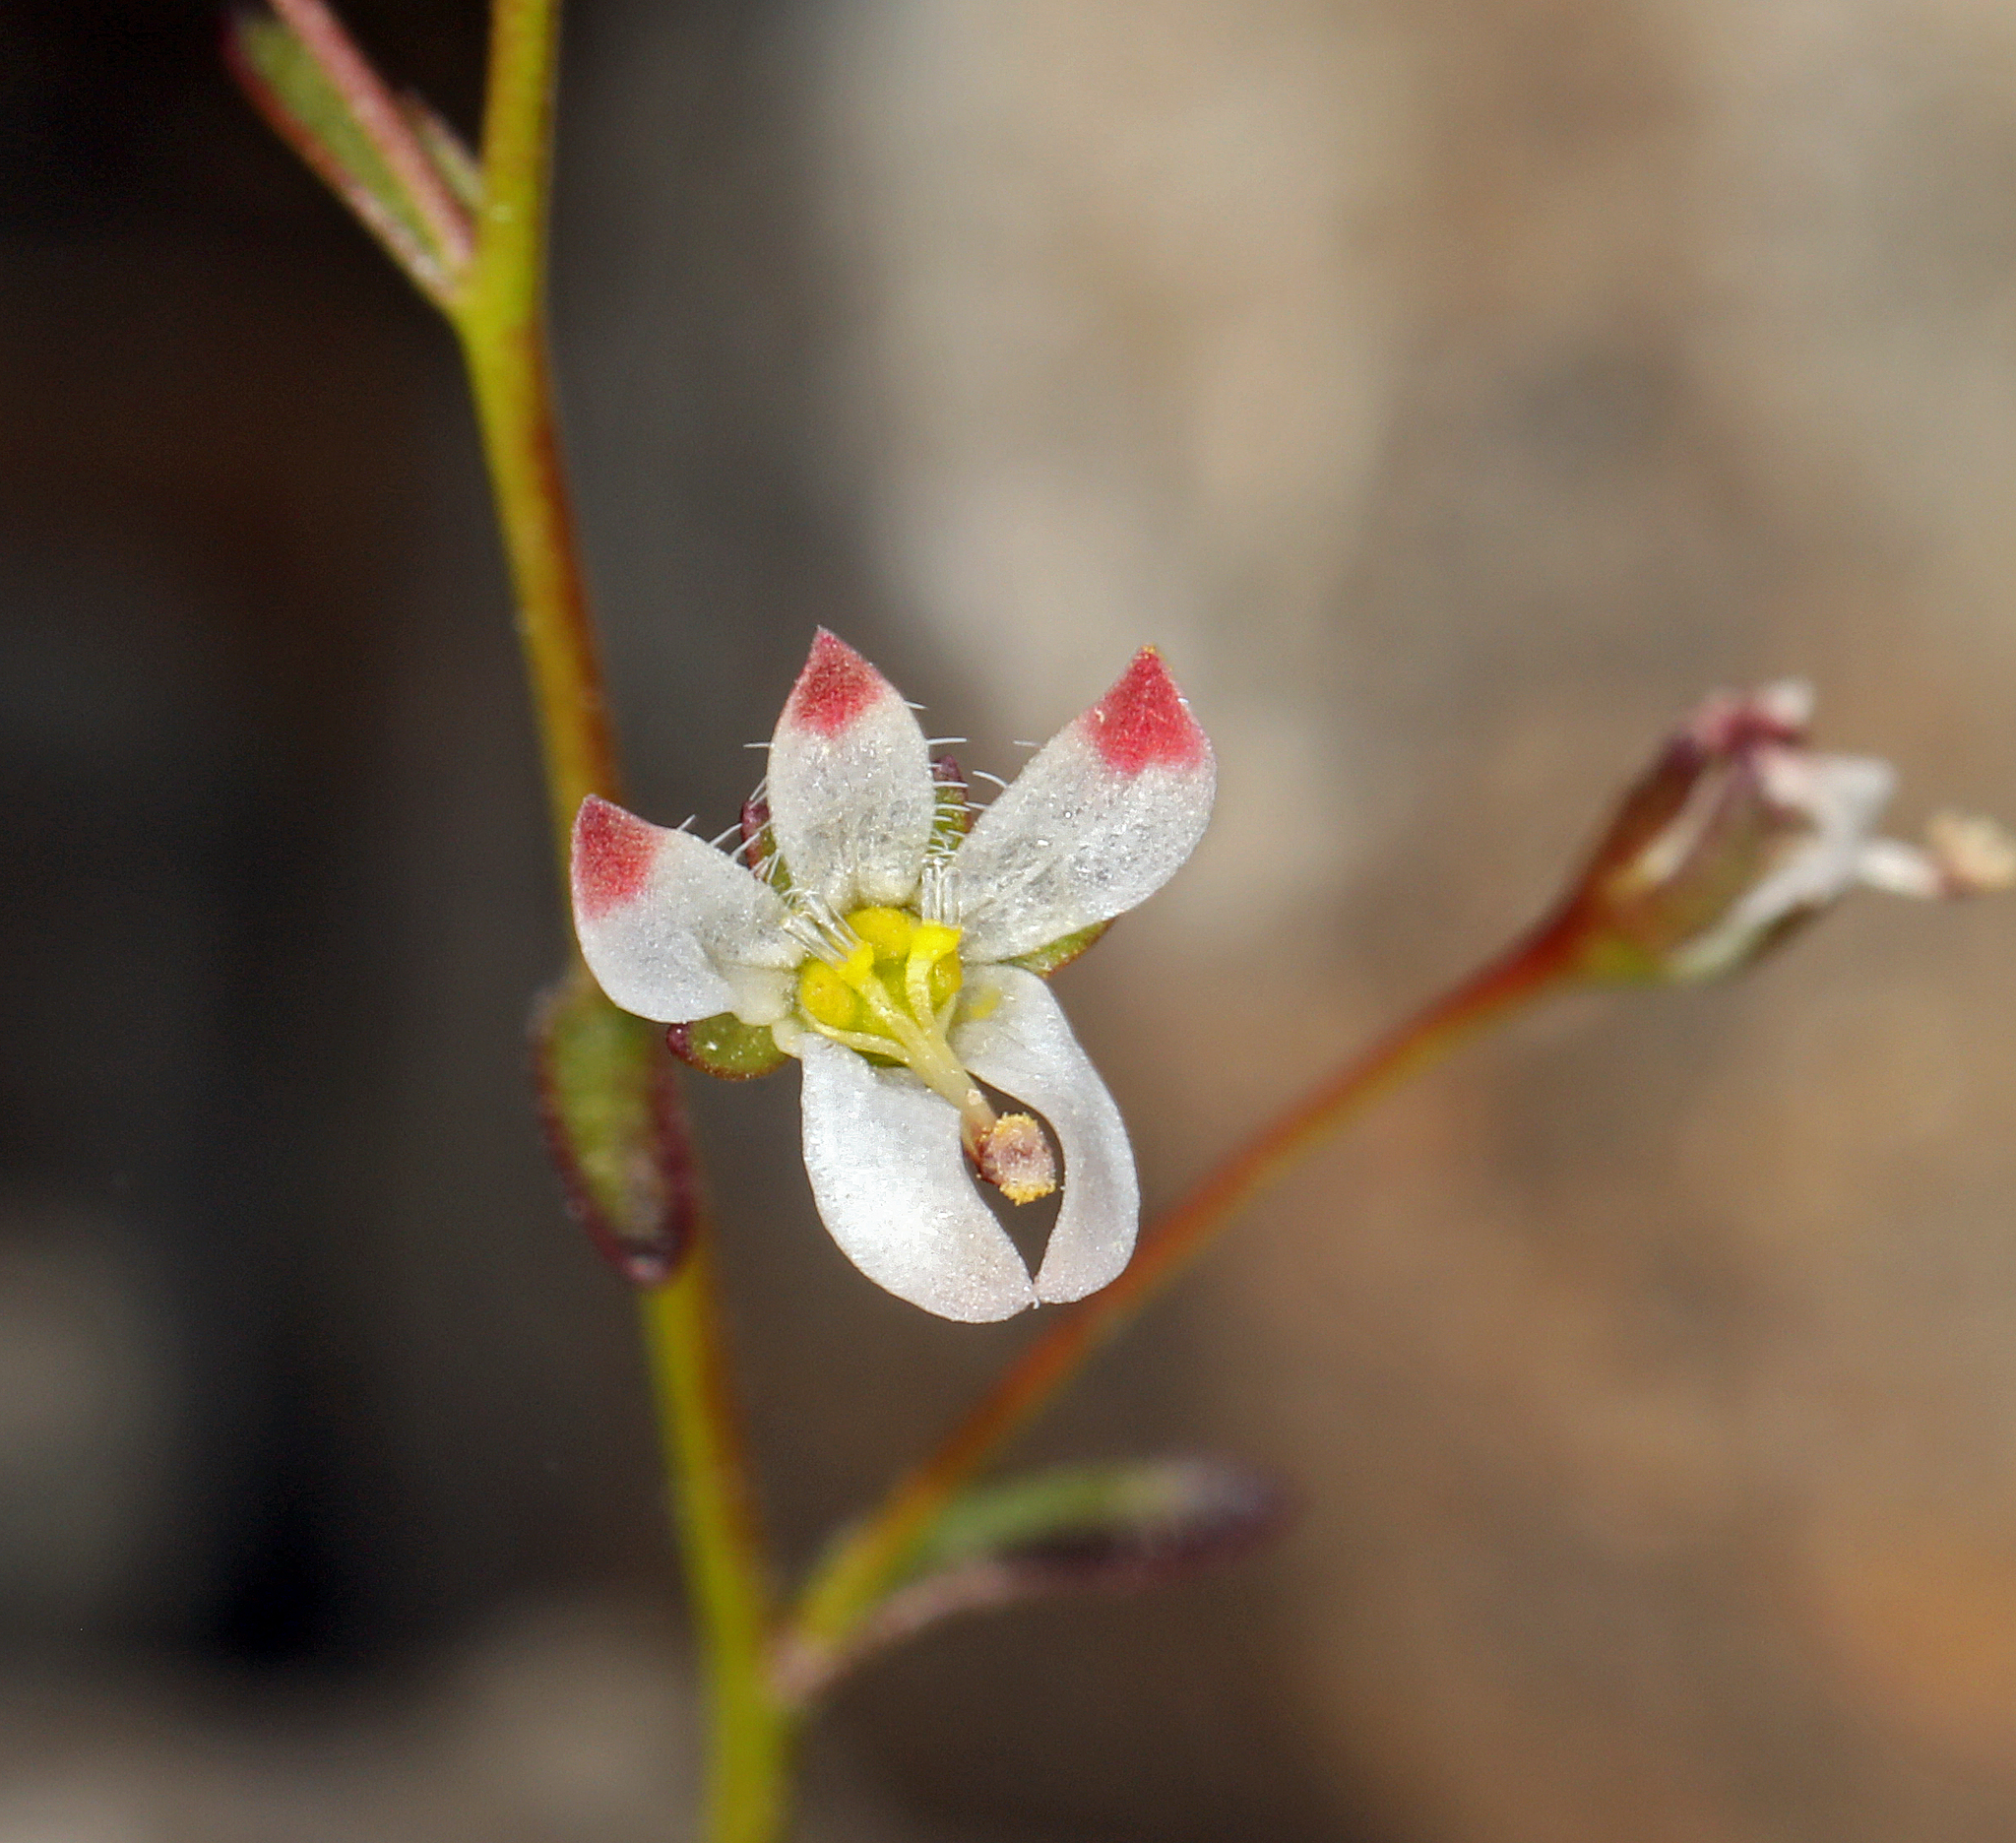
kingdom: Plantae
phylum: Tracheophyta
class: Magnoliopsida
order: Asterales
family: Campanulaceae
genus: Nemacladus
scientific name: Nemacladus orientalis
